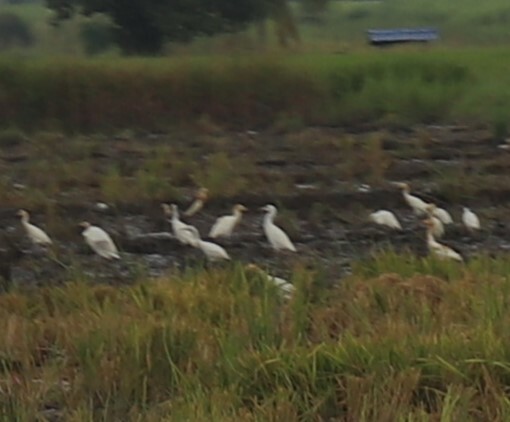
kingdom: Animalia
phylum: Chordata
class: Aves
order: Pelecaniformes
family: Ardeidae
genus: Ardeola
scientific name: Ardeola speciosa
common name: Javan pond heron
